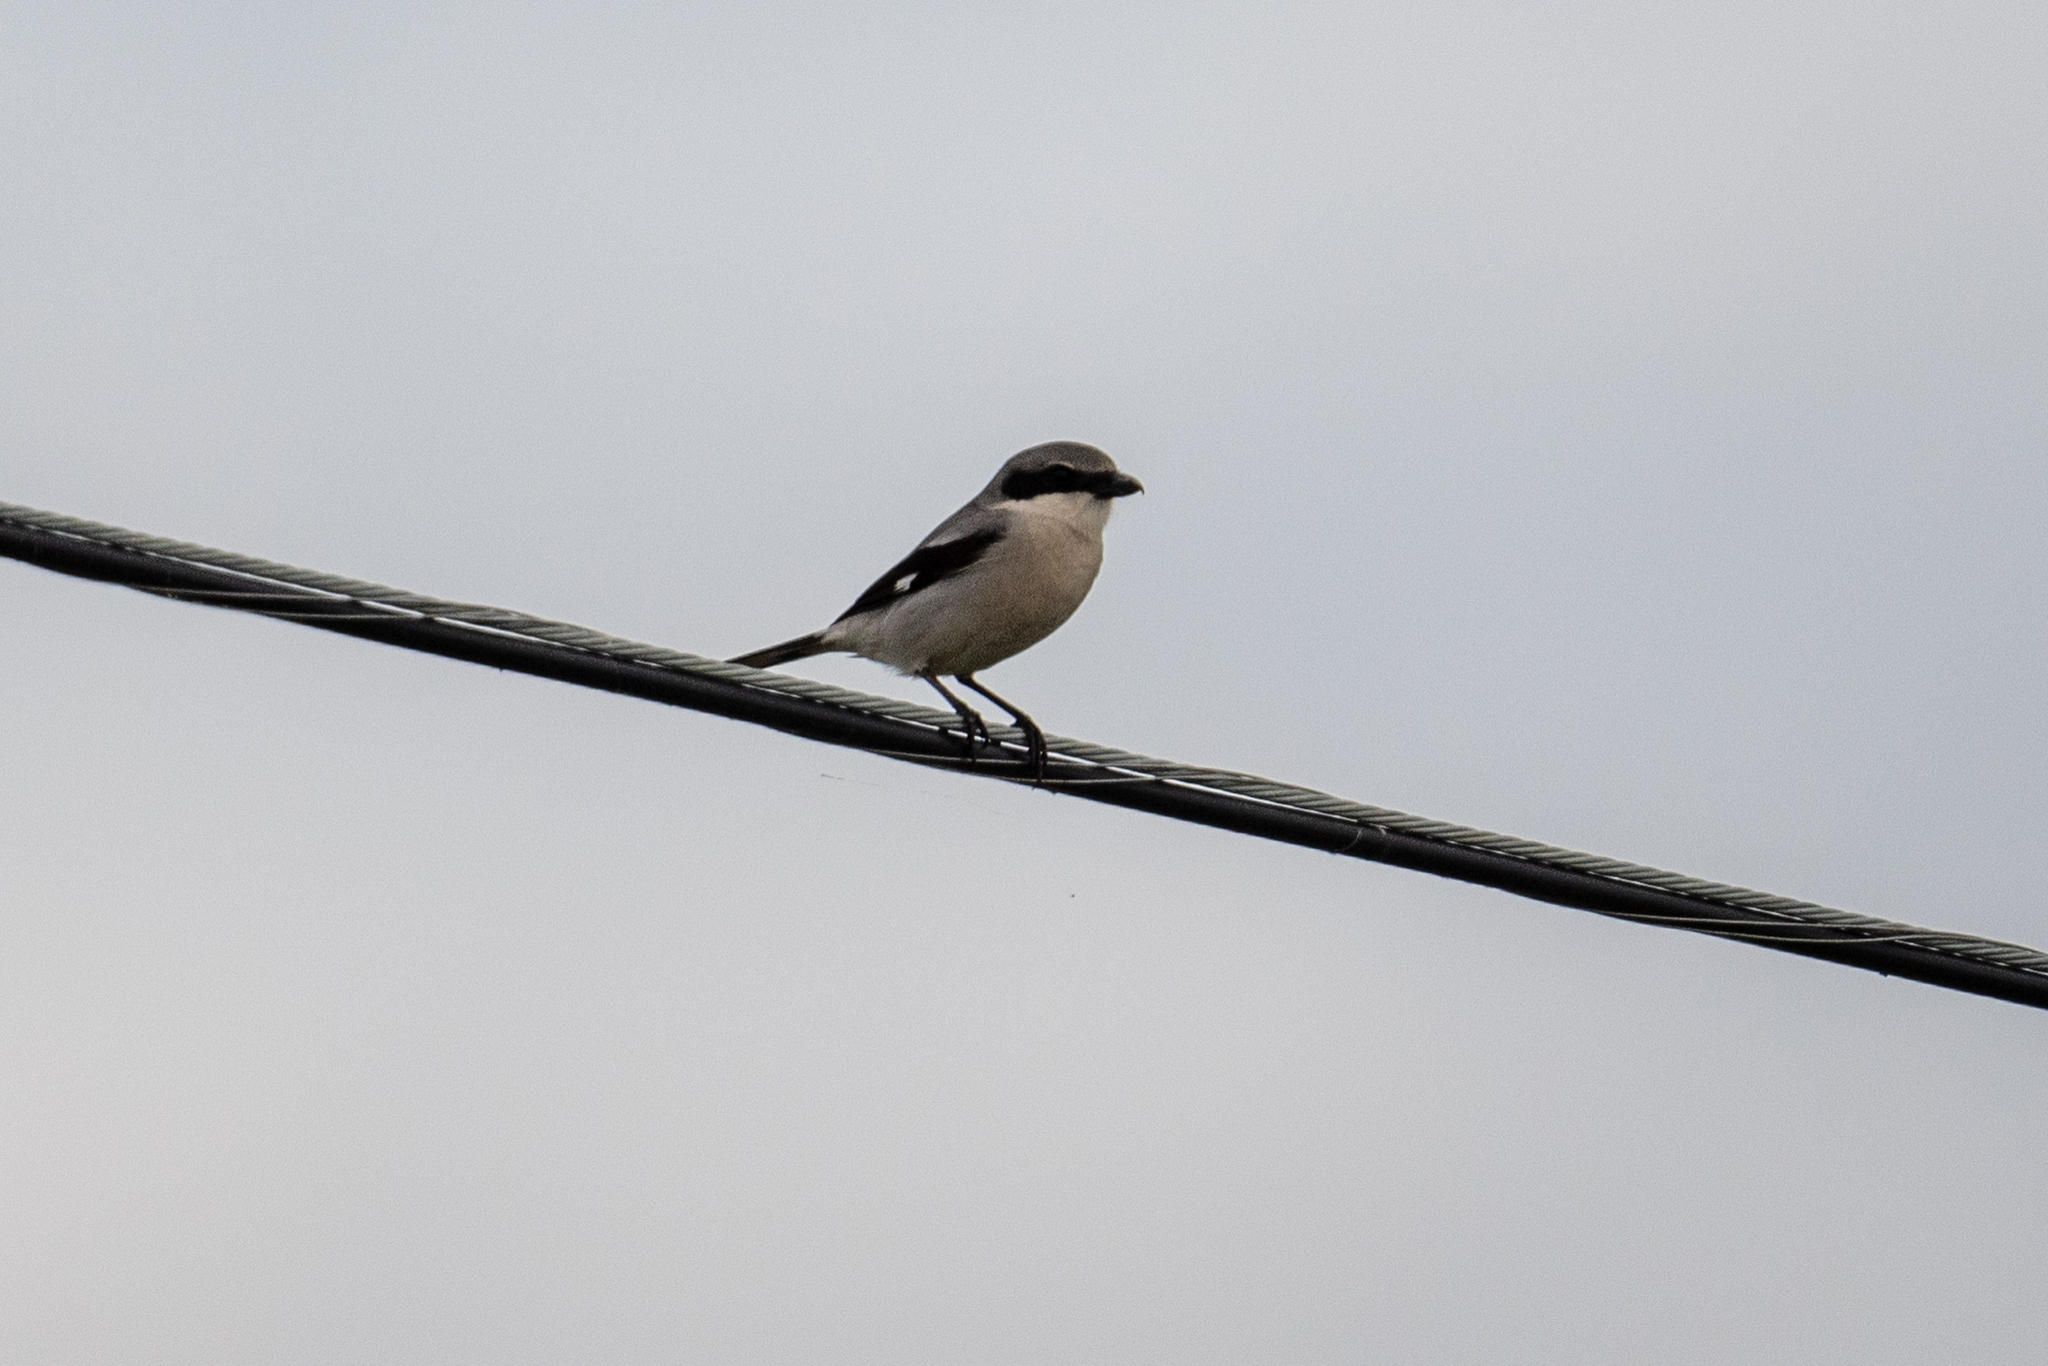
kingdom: Animalia
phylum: Chordata
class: Aves
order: Passeriformes
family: Laniidae
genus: Lanius
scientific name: Lanius ludovicianus
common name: Loggerhead shrike
